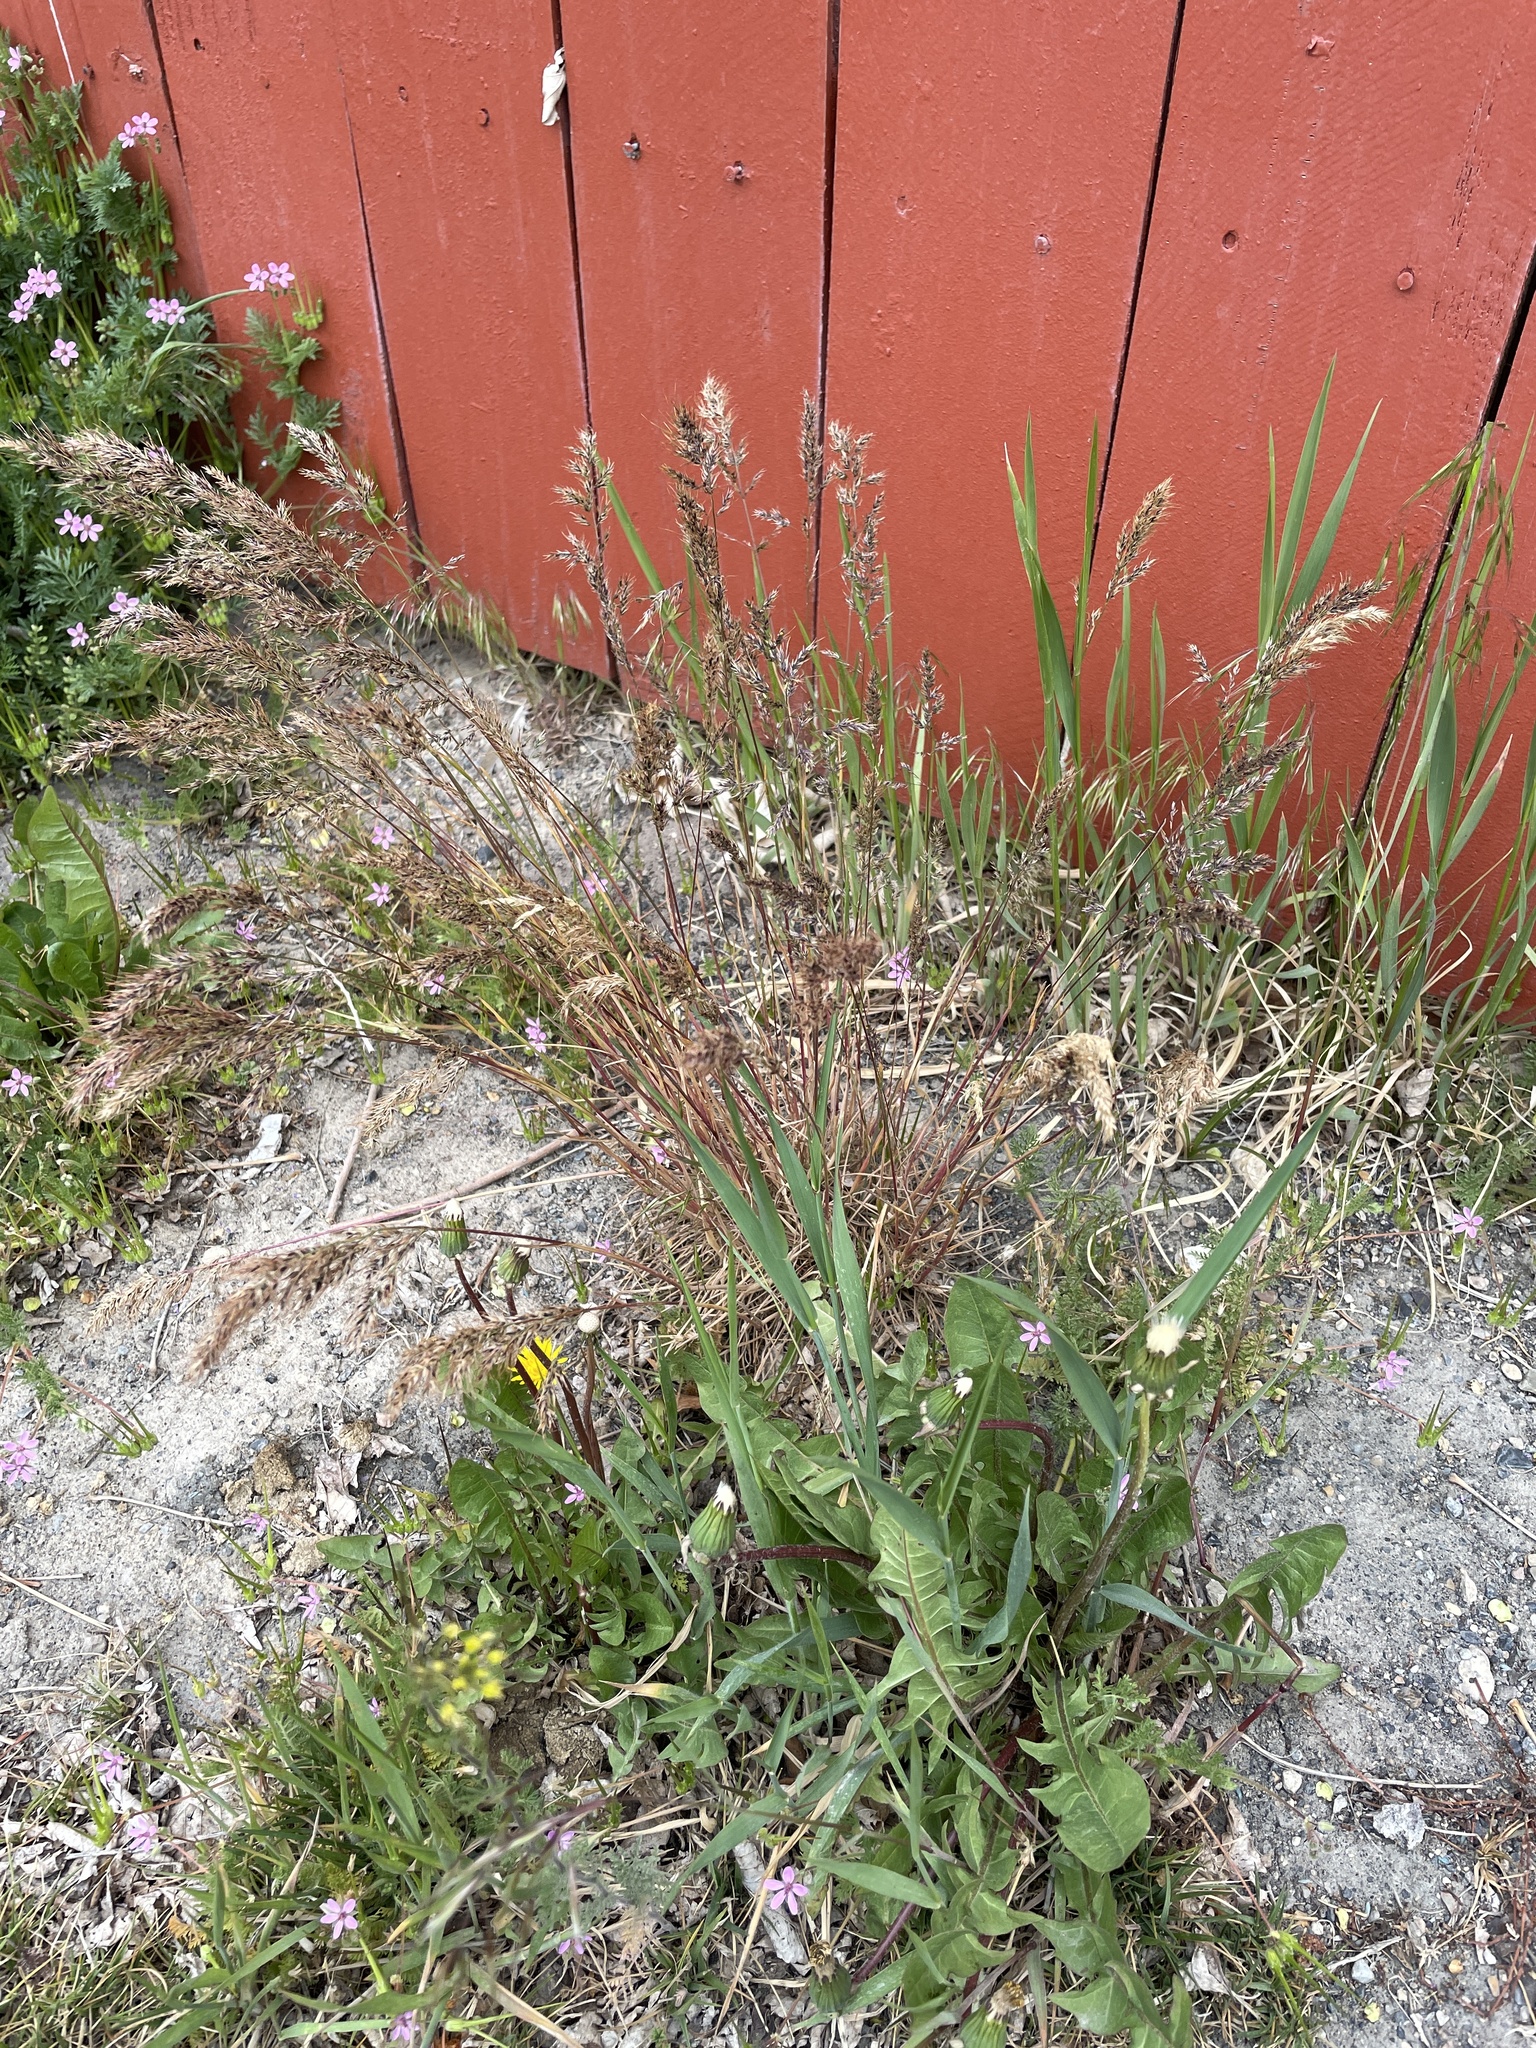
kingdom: Plantae
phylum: Tracheophyta
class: Liliopsida
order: Poales
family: Poaceae
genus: Poa
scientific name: Poa bulbosa
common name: Bulbous bluegrass
